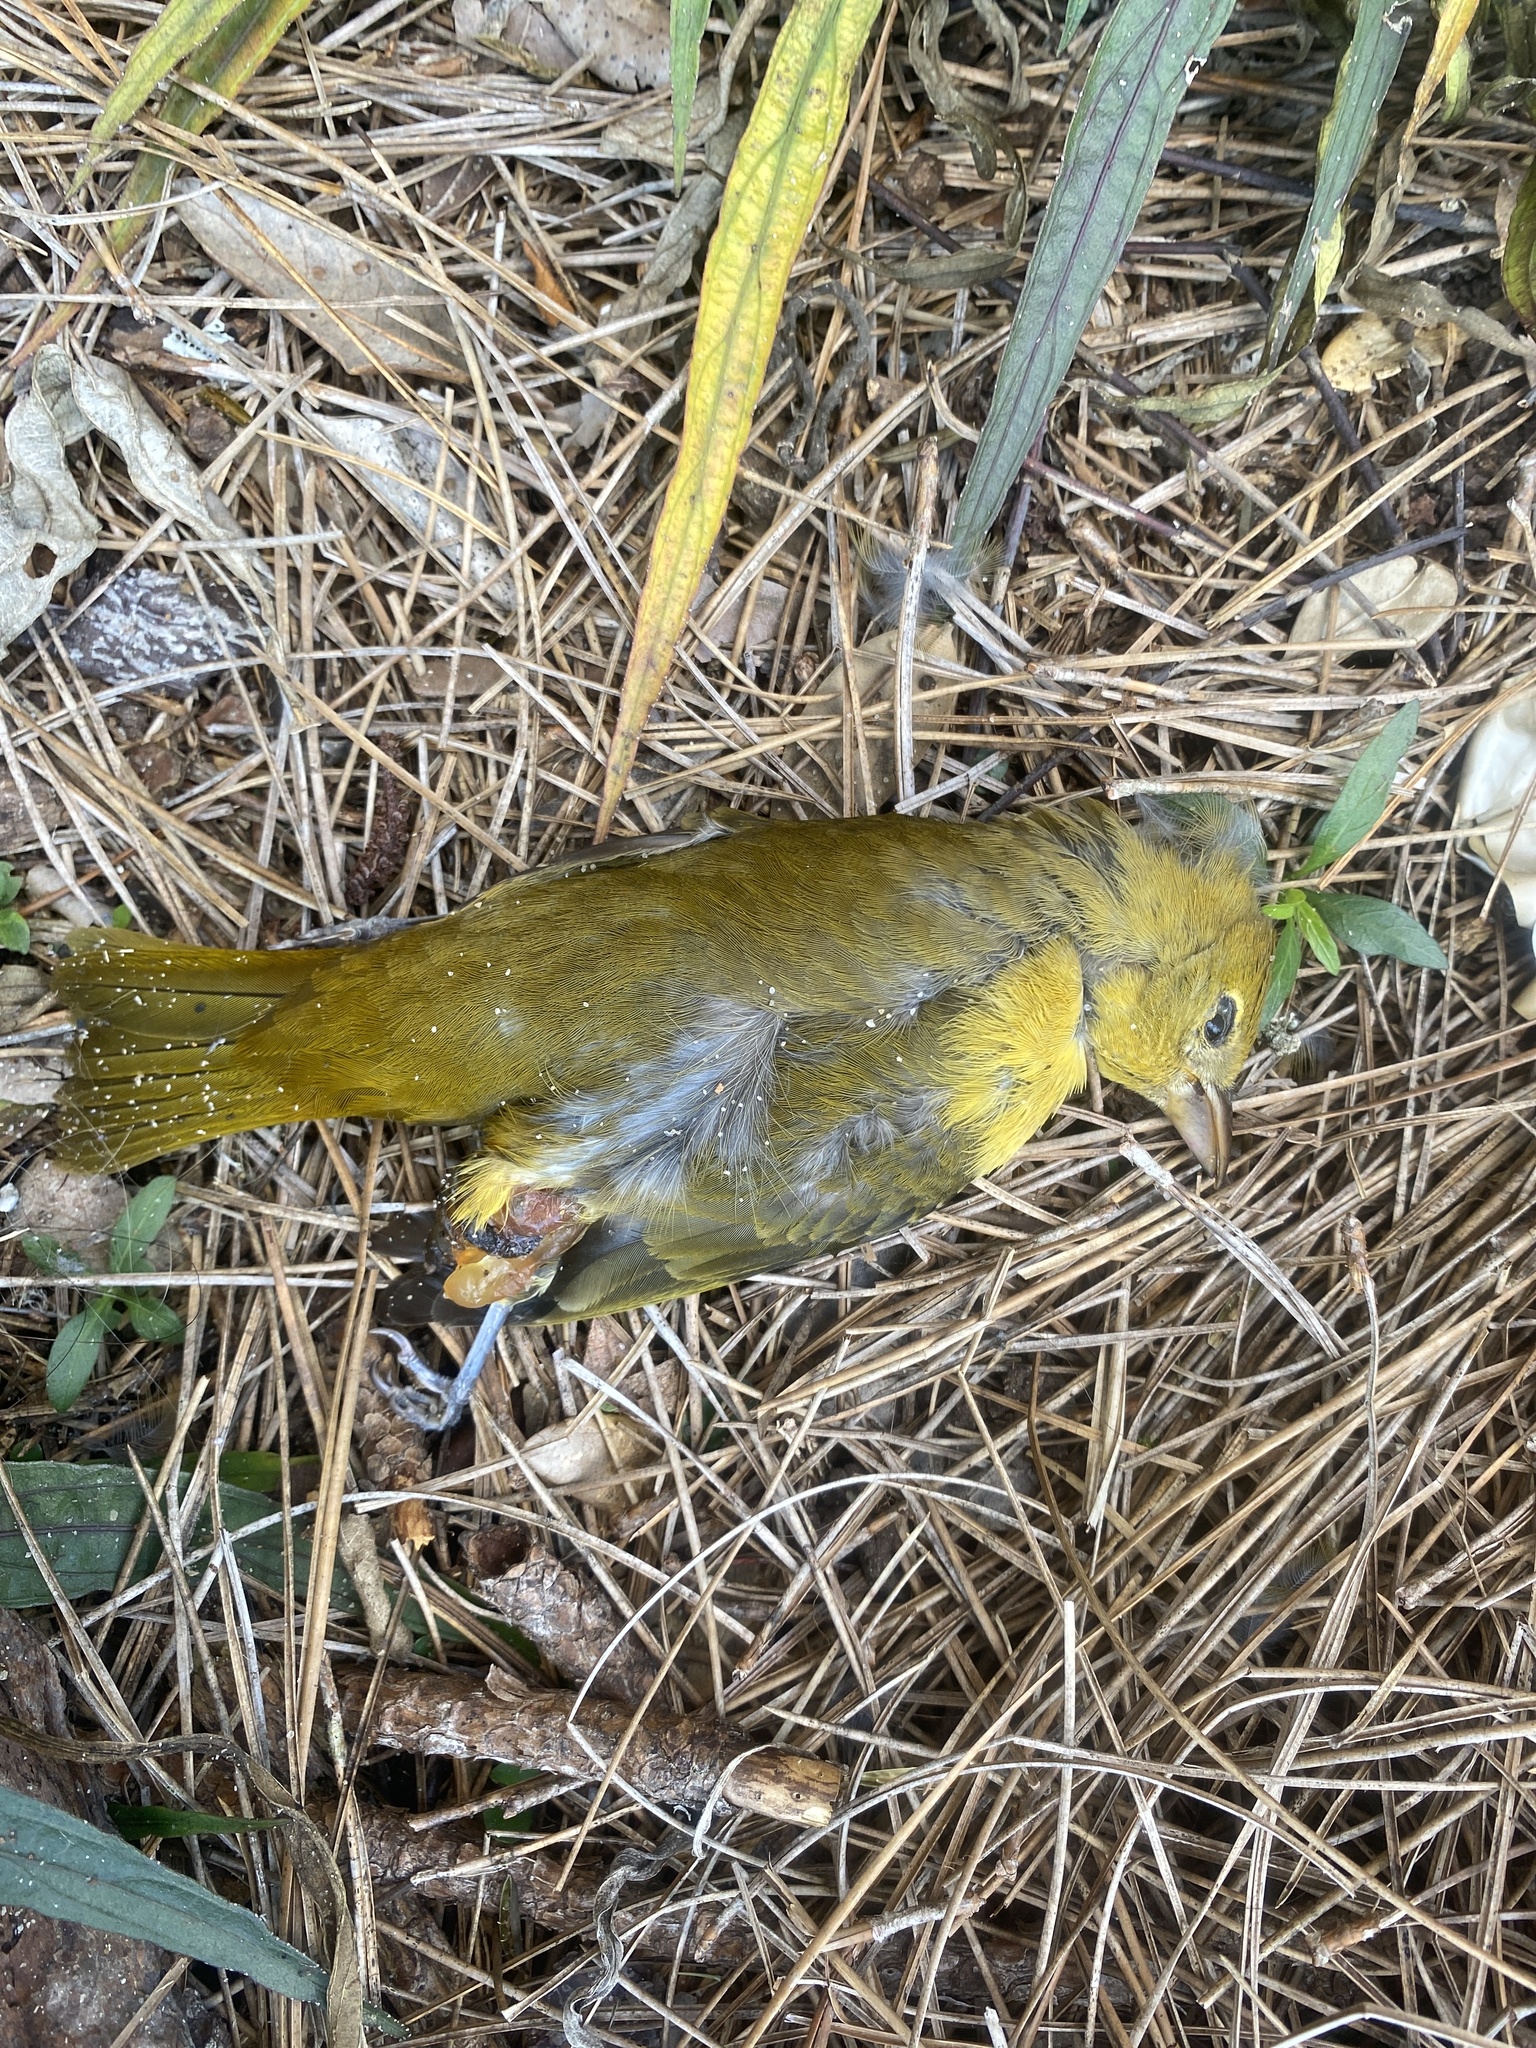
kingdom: Animalia
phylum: Chordata
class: Aves
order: Passeriformes
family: Cardinalidae
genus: Piranga
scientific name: Piranga rubra
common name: Summer tanager
